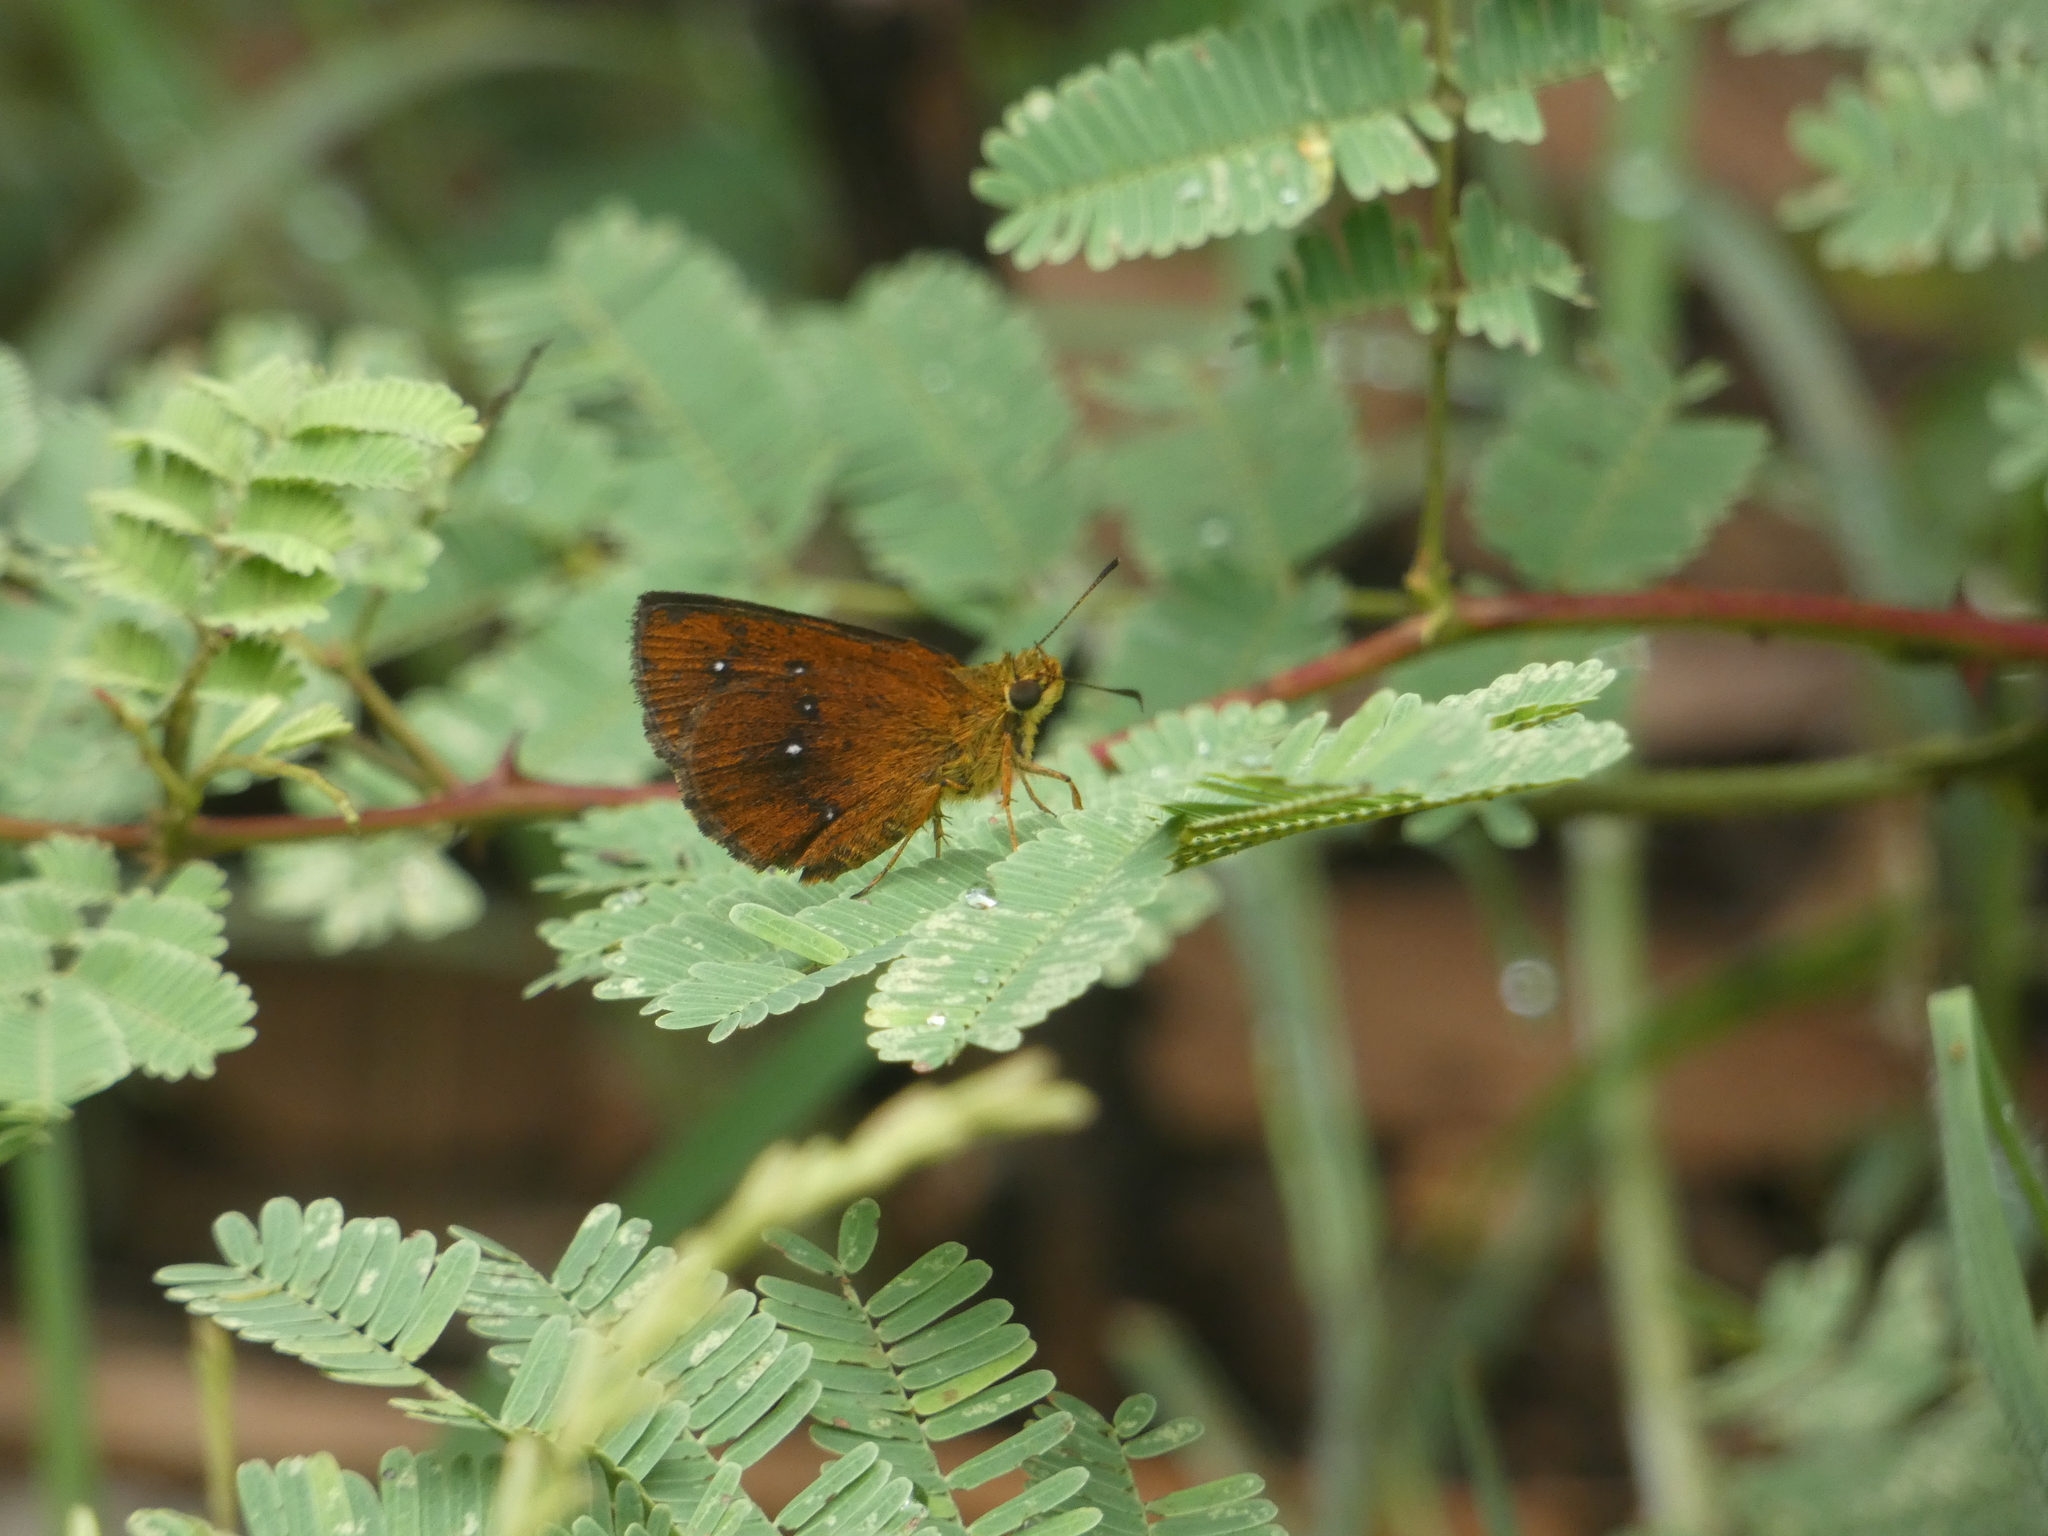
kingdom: Animalia
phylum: Arthropoda
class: Insecta
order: Lepidoptera
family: Hesperiidae
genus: Iambrix
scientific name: Iambrix salsala
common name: Chestnut bob
